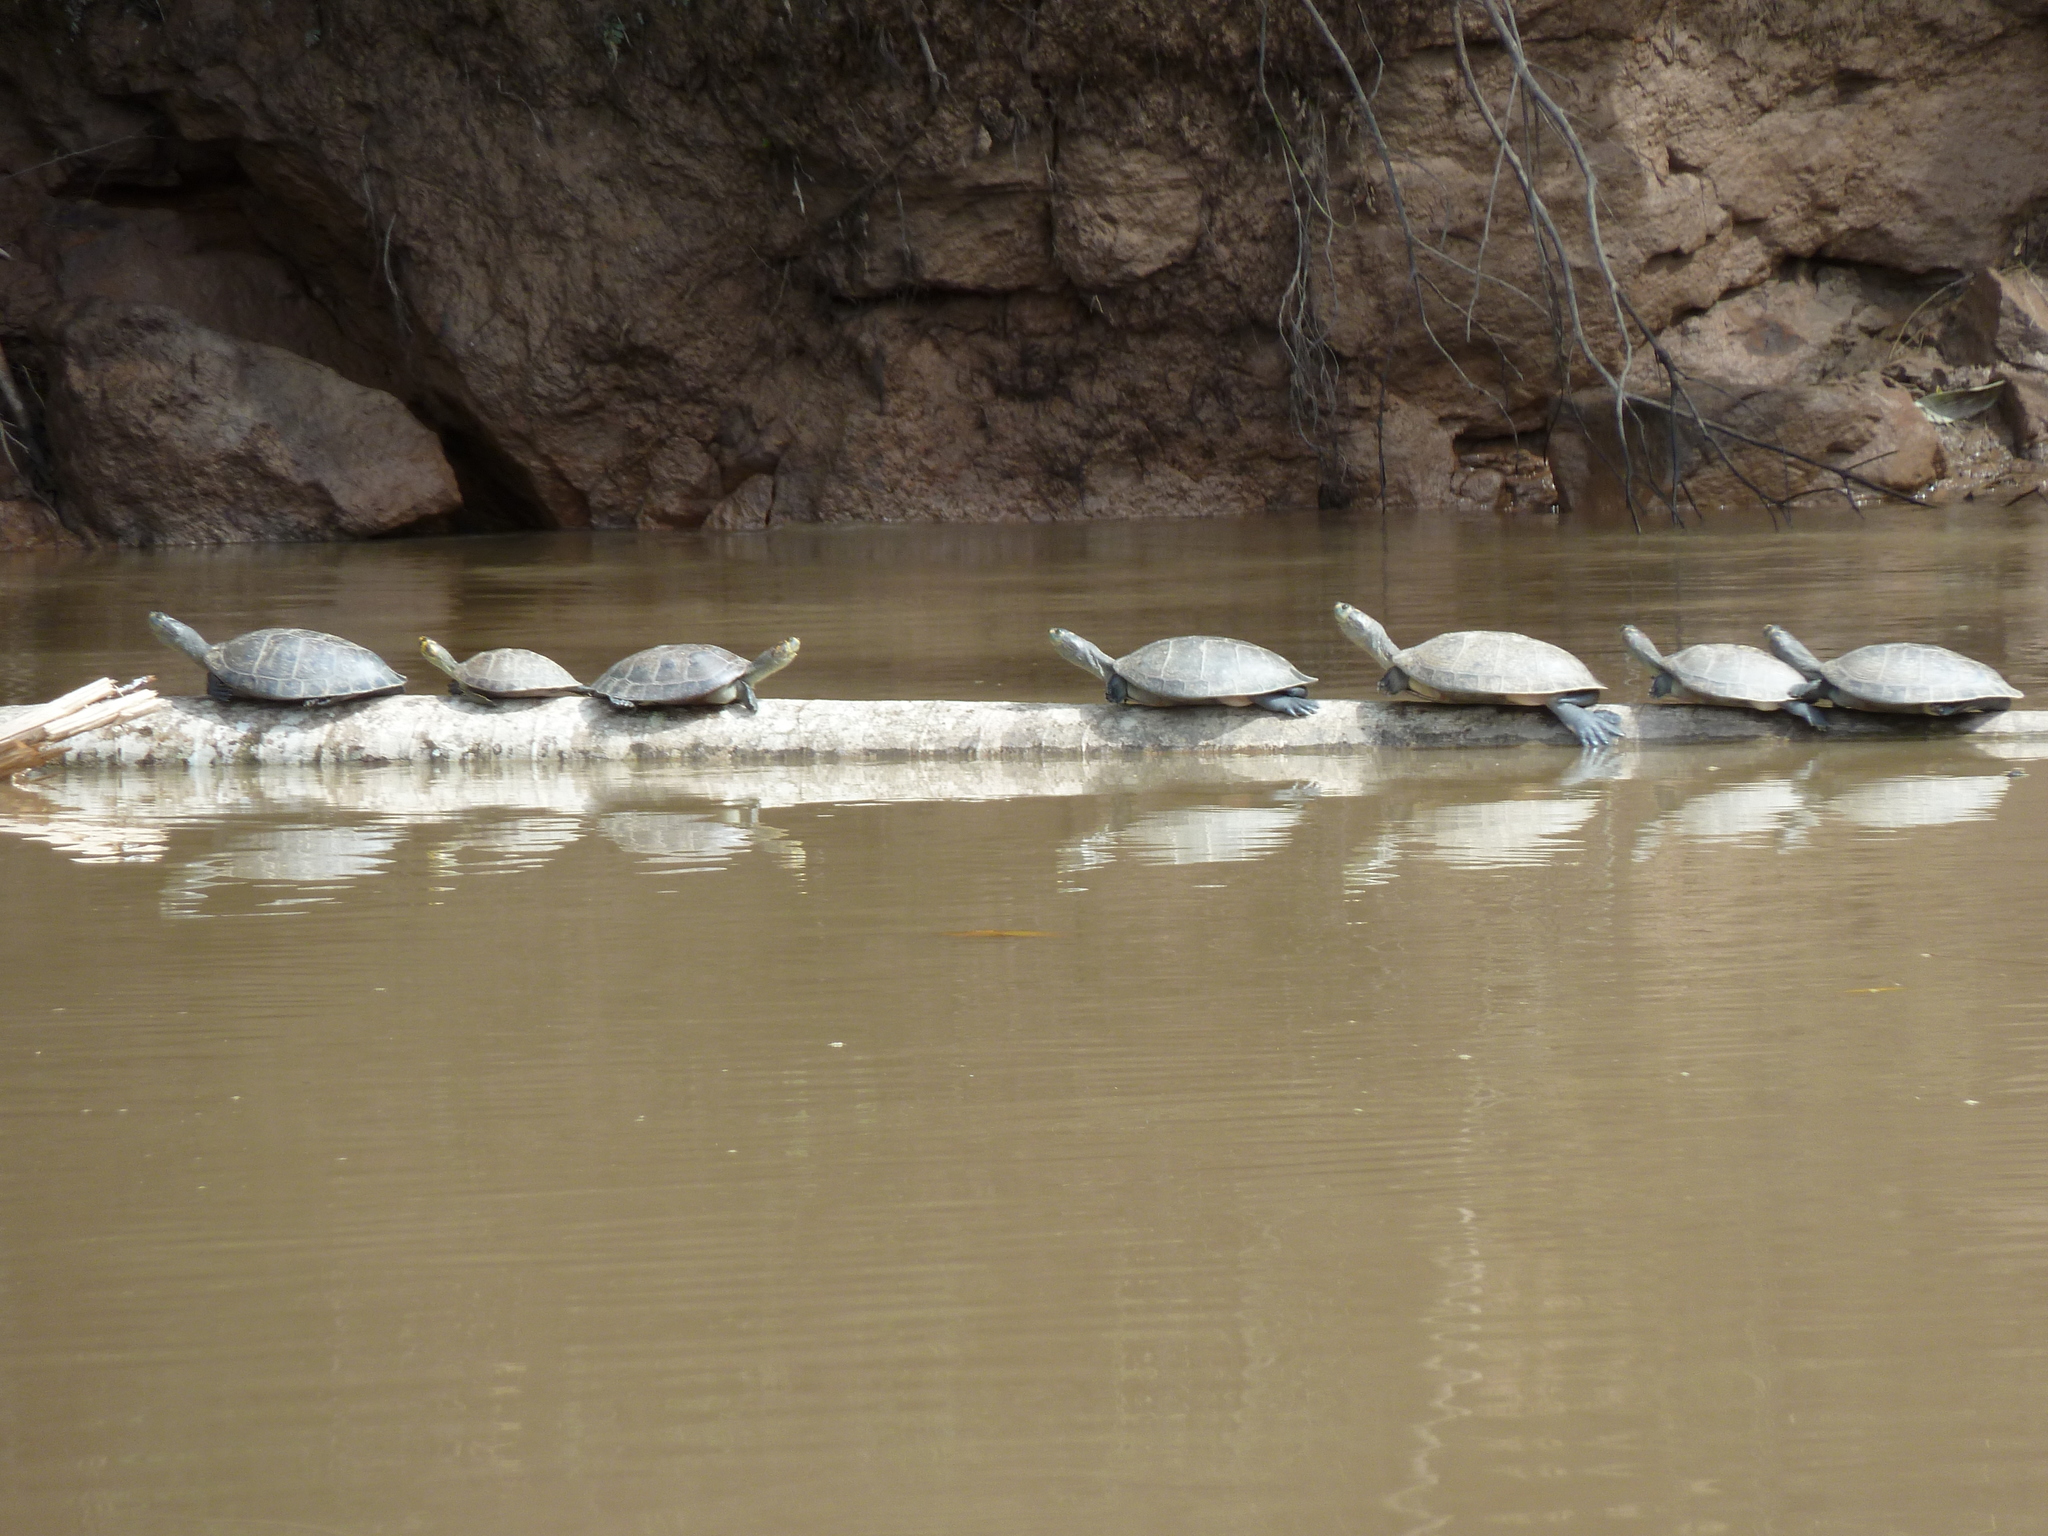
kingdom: Animalia
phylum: Chordata
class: Testudines
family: Podocnemididae
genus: Podocnemis
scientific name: Podocnemis unifilis
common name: Yellow-spotted amazon river turtle
